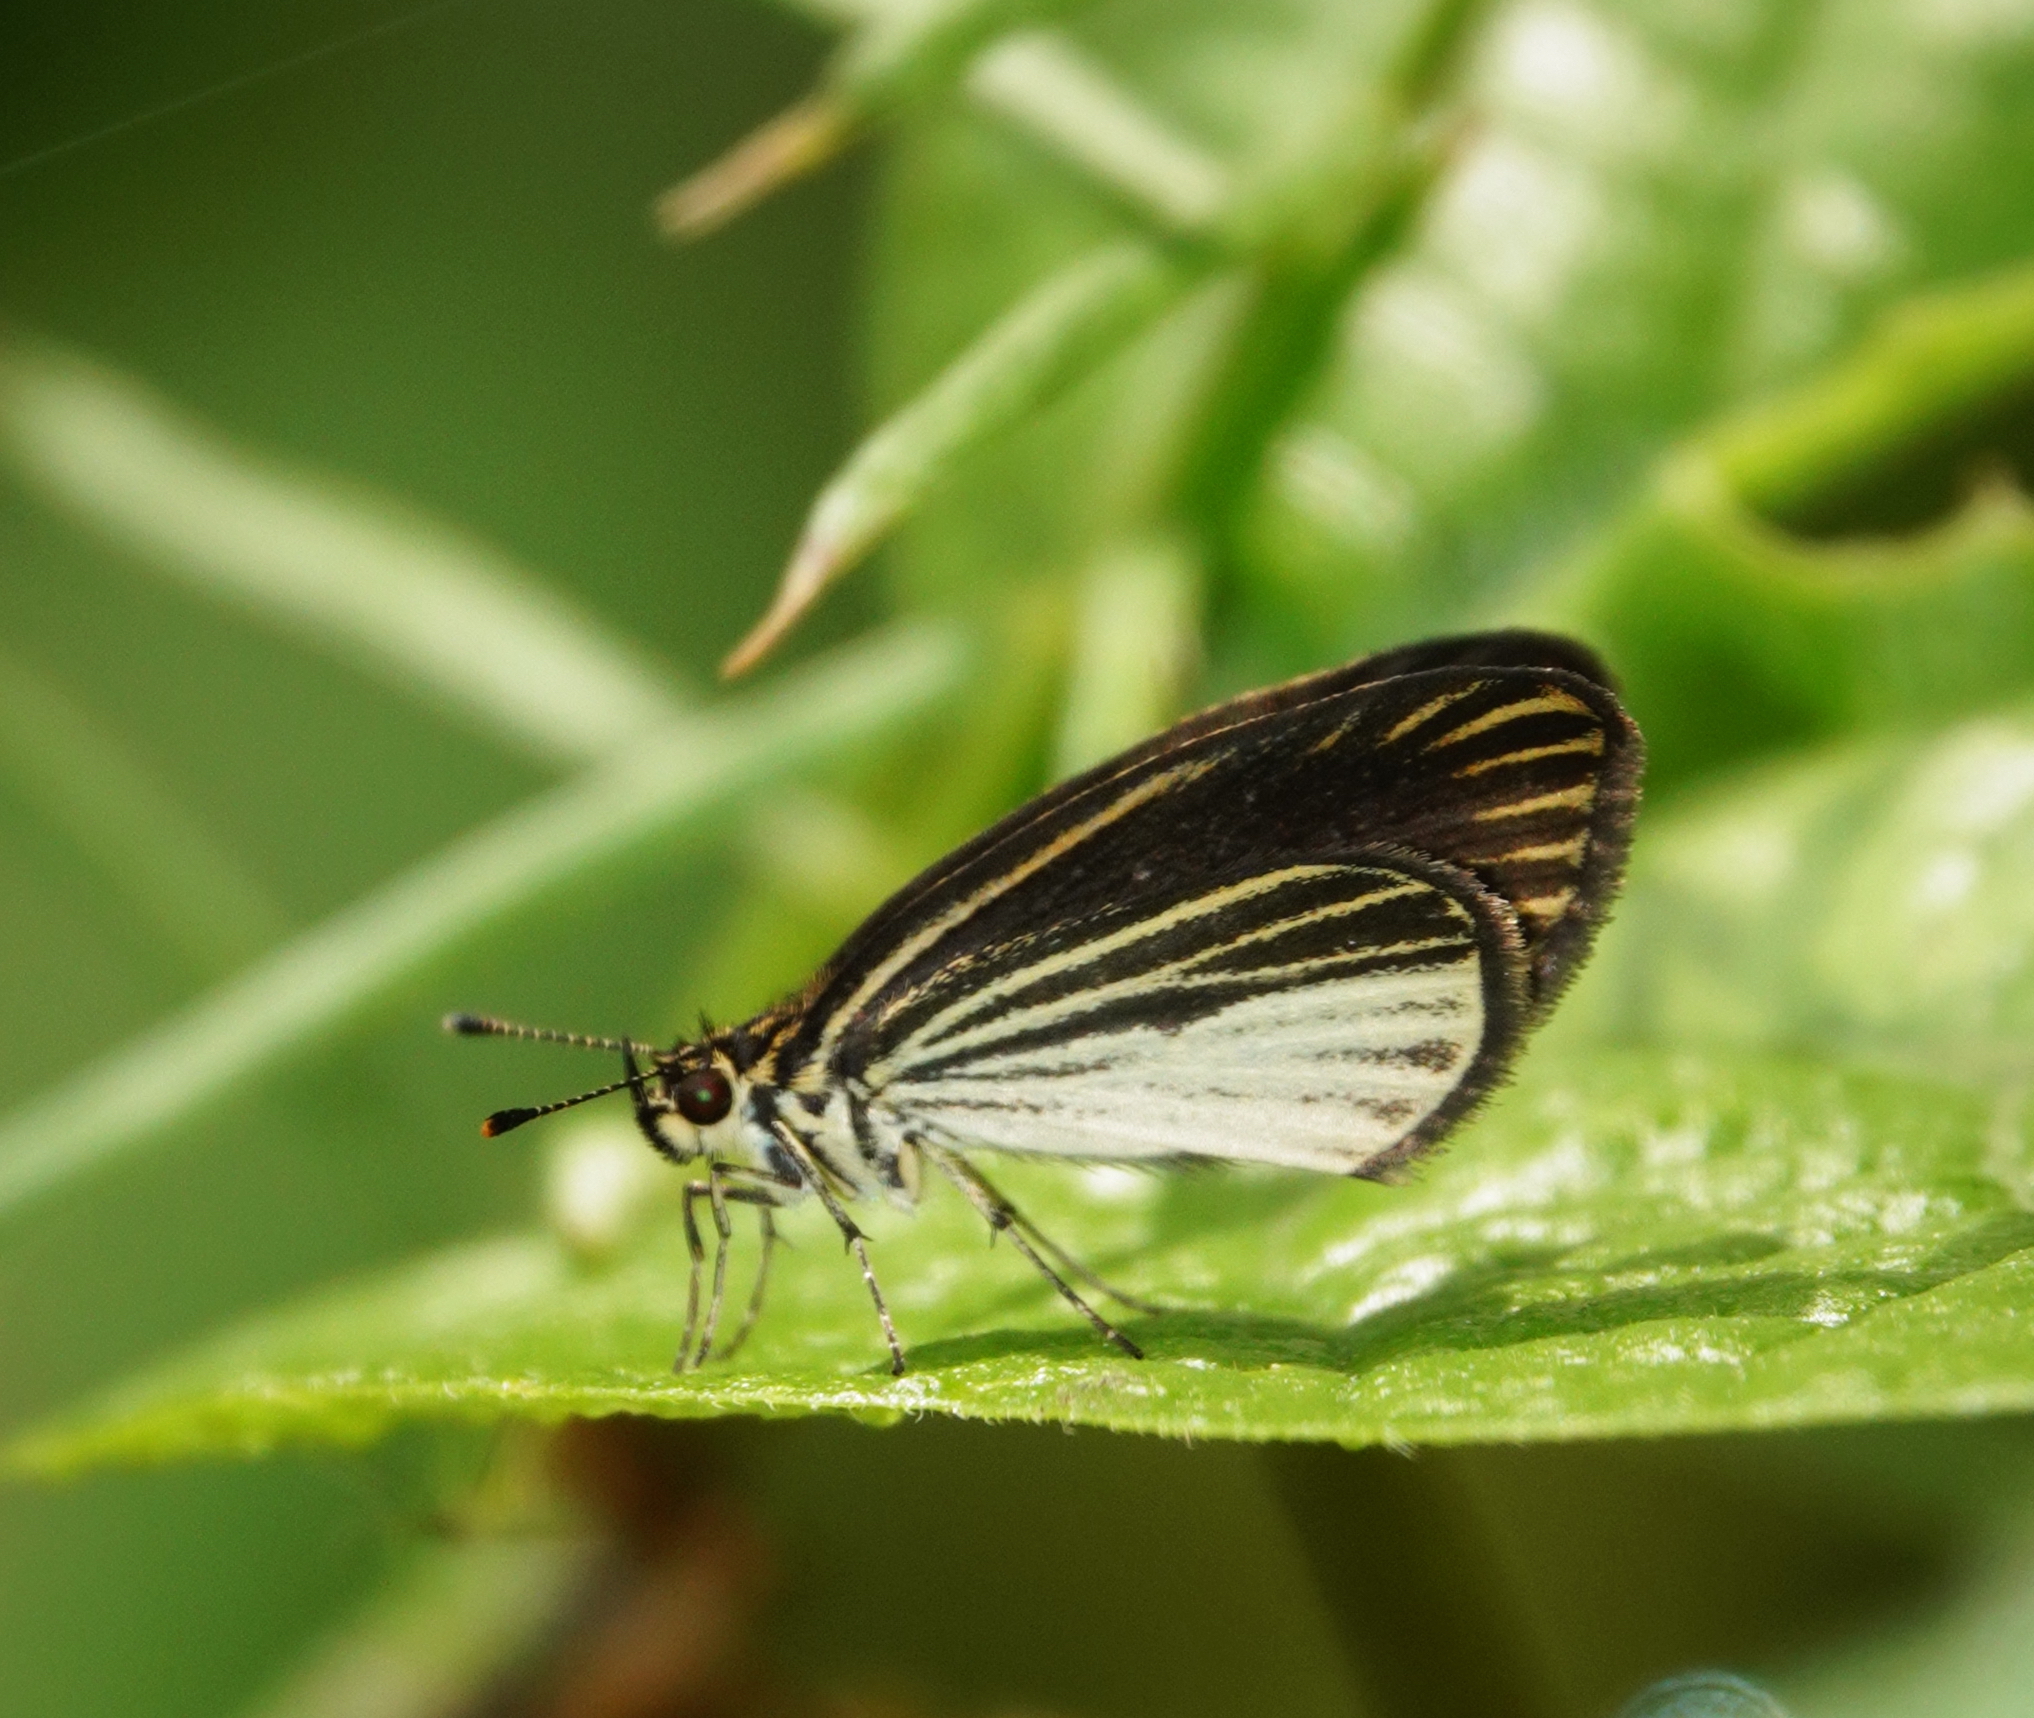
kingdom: Animalia
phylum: Arthropoda
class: Insecta
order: Lepidoptera
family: Hesperiidae
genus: Apaustus
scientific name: Apaustus gracilis
